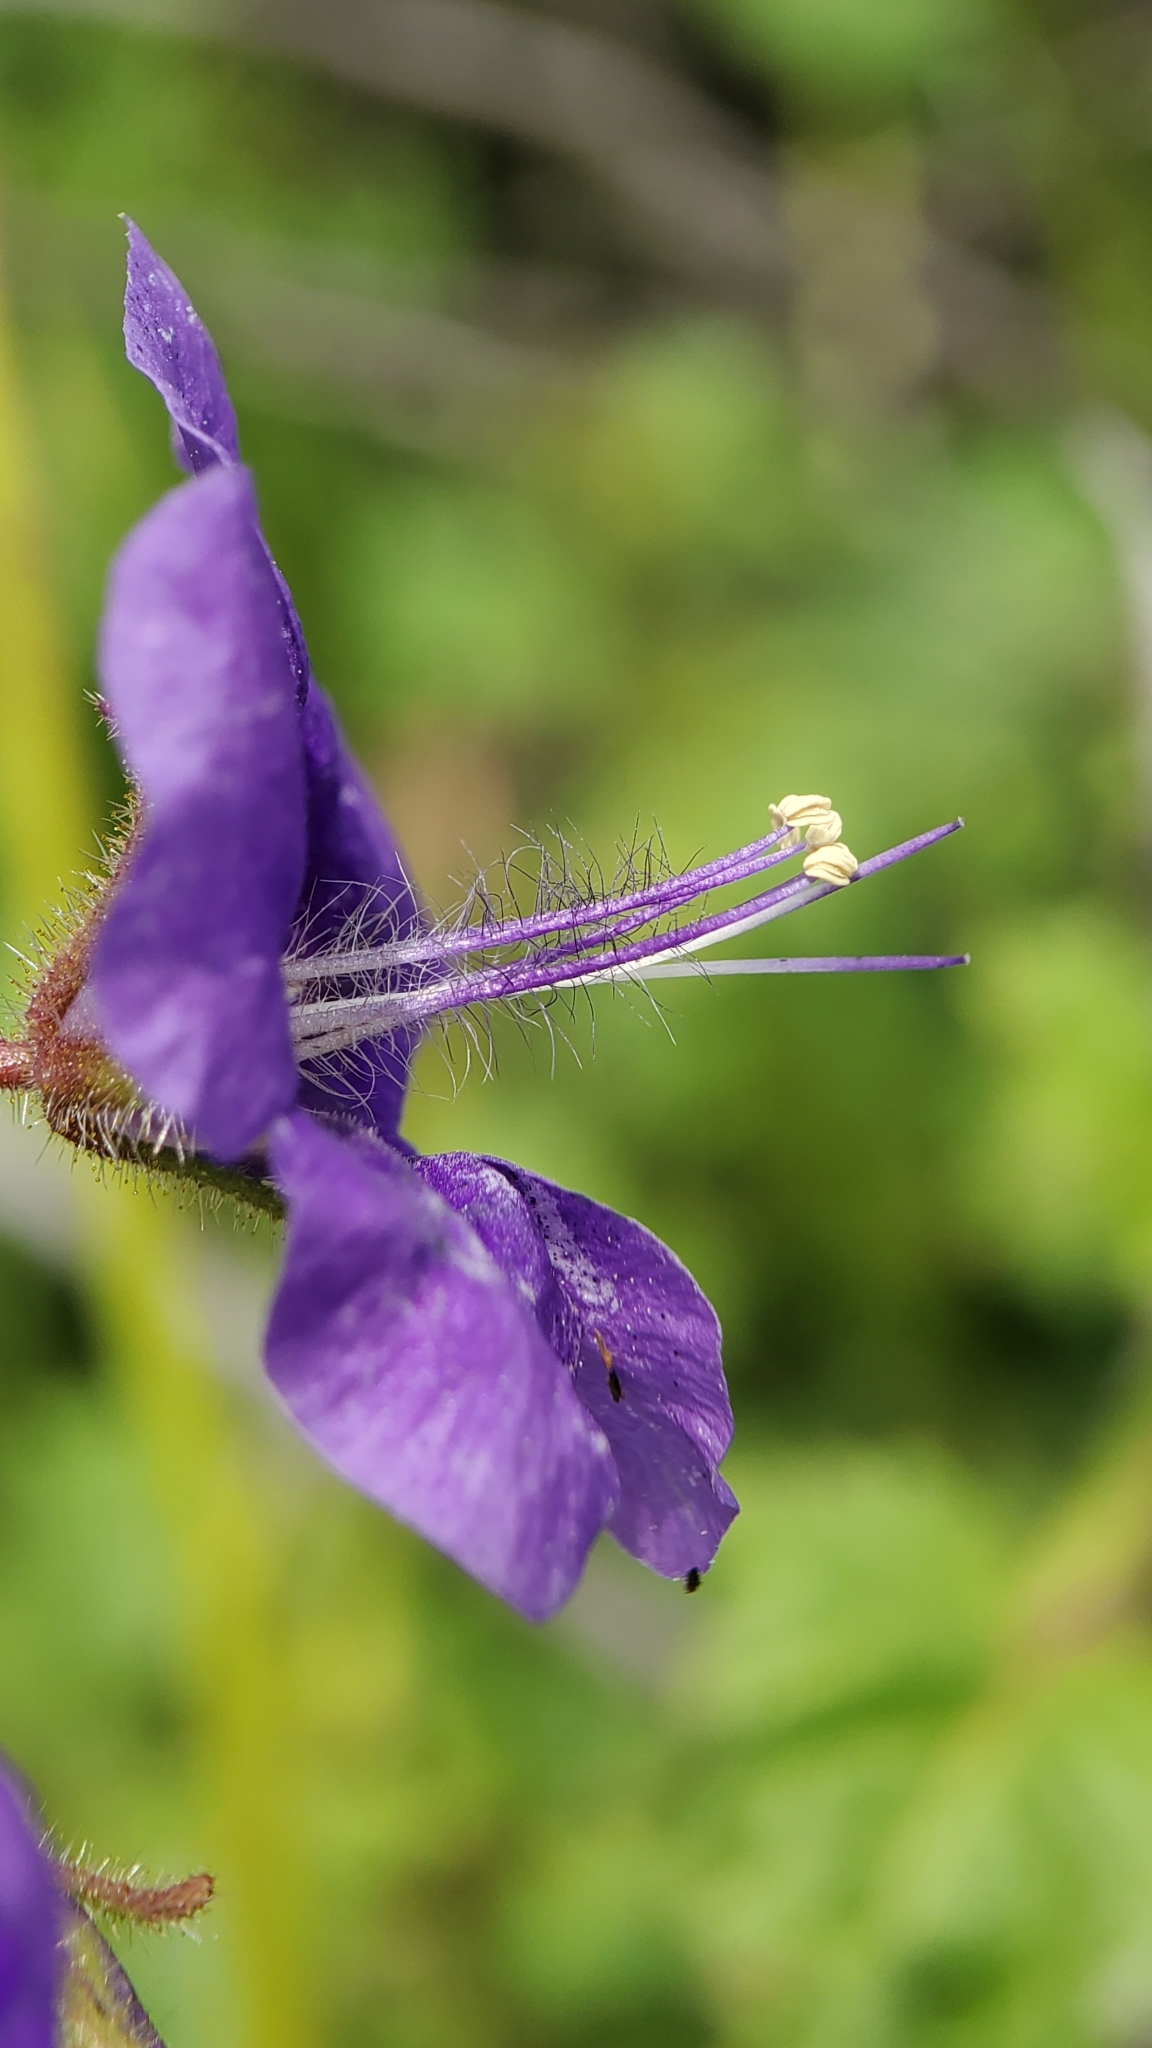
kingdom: Plantae
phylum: Tracheophyta
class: Magnoliopsida
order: Boraginales
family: Hydrophyllaceae
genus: Phacelia
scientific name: Phacelia parryi
